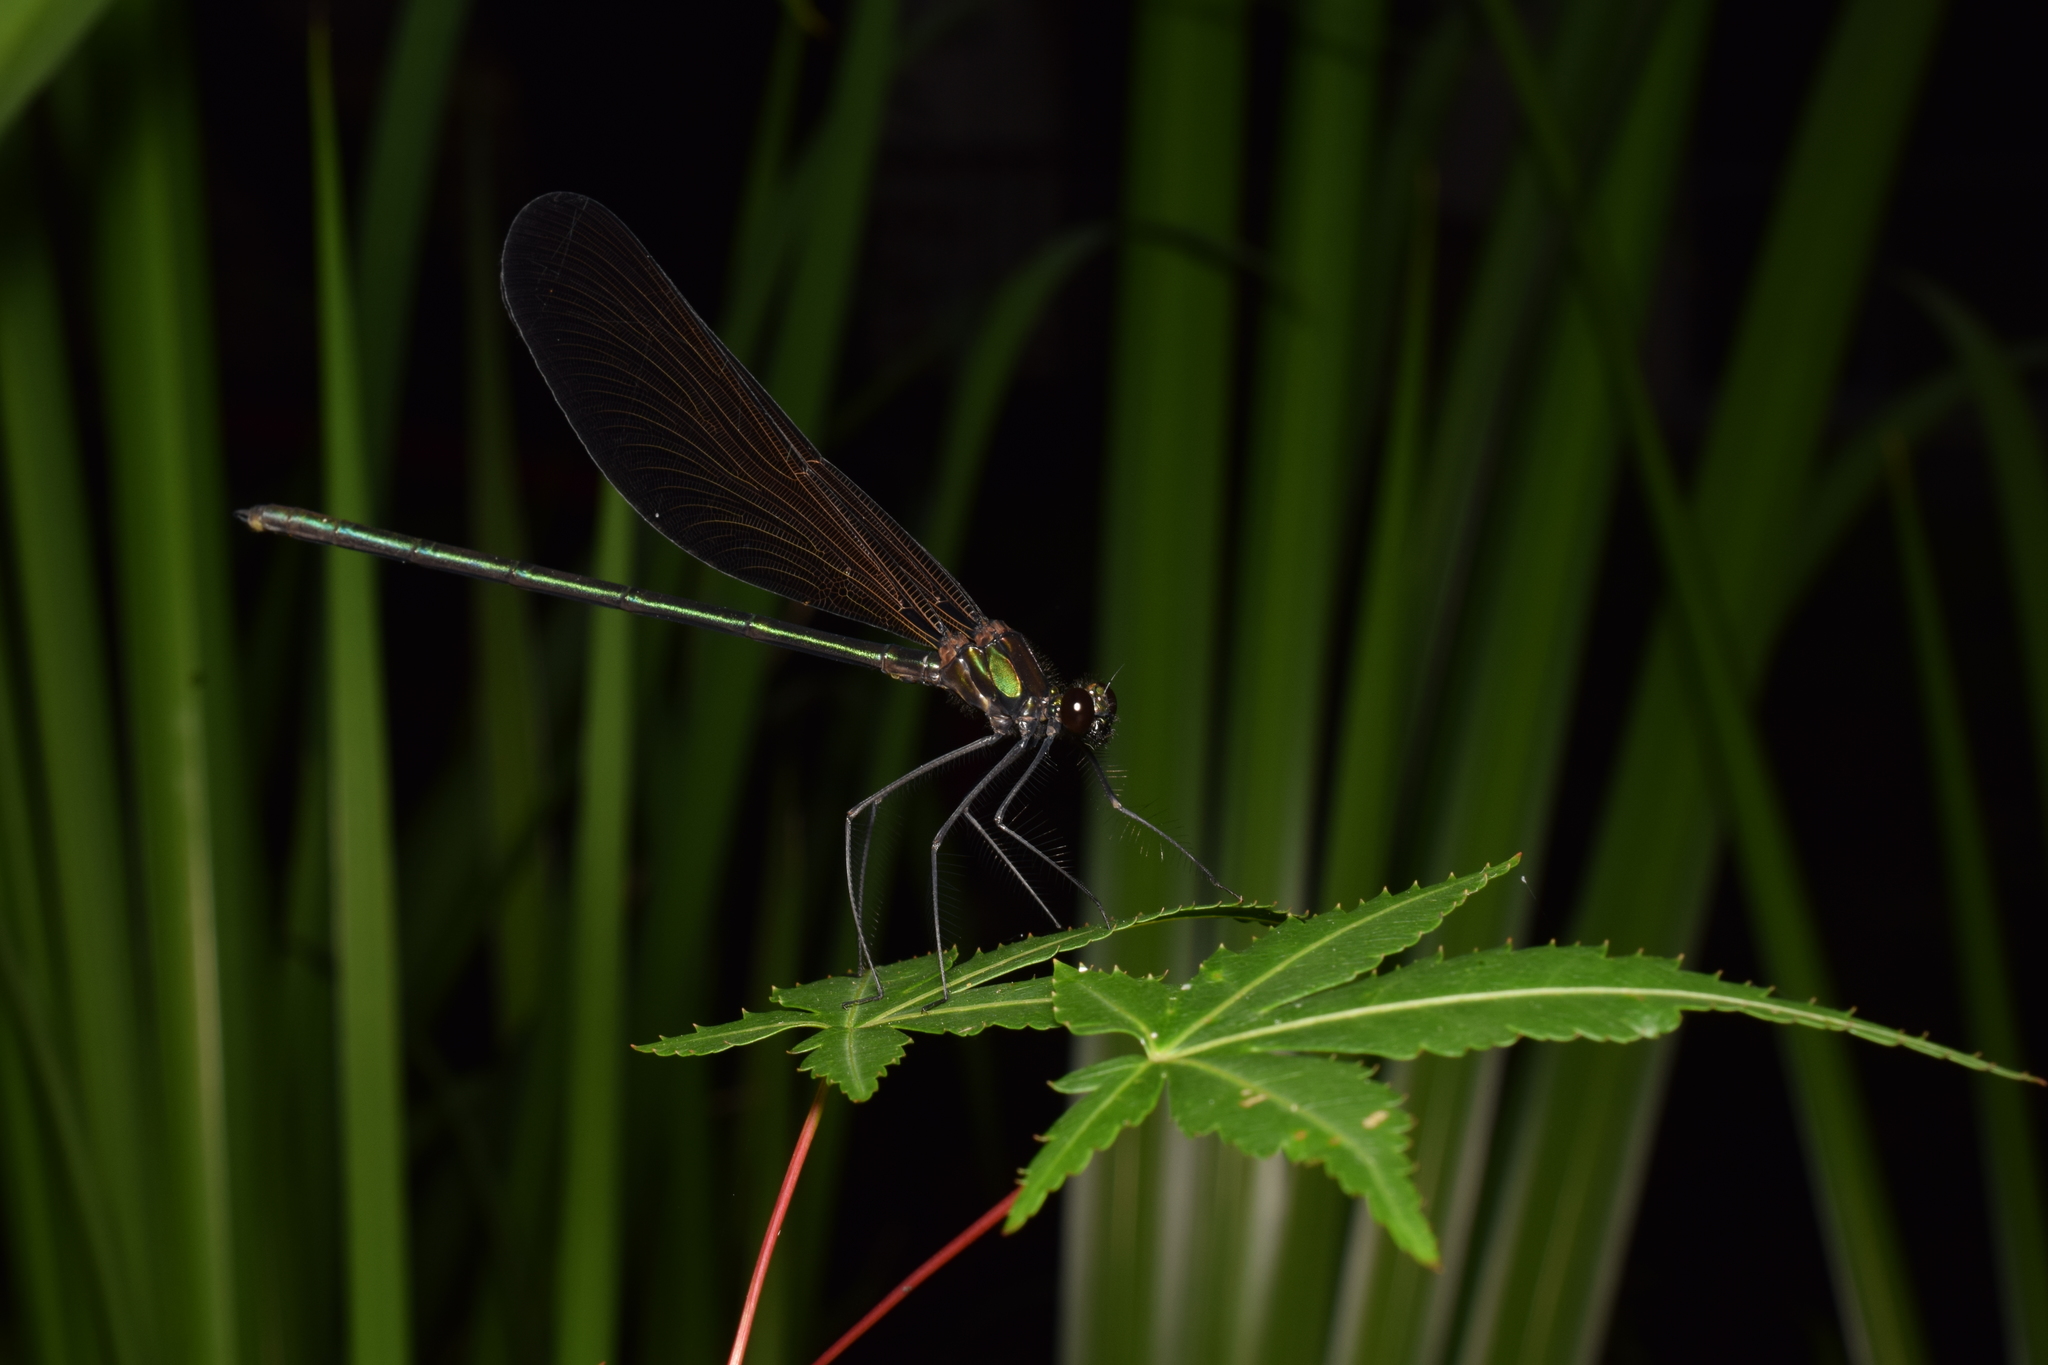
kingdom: Animalia
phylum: Arthropoda
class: Insecta
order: Odonata
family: Calopterygidae
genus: Atrocalopteryx
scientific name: Atrocalopteryx atrata
